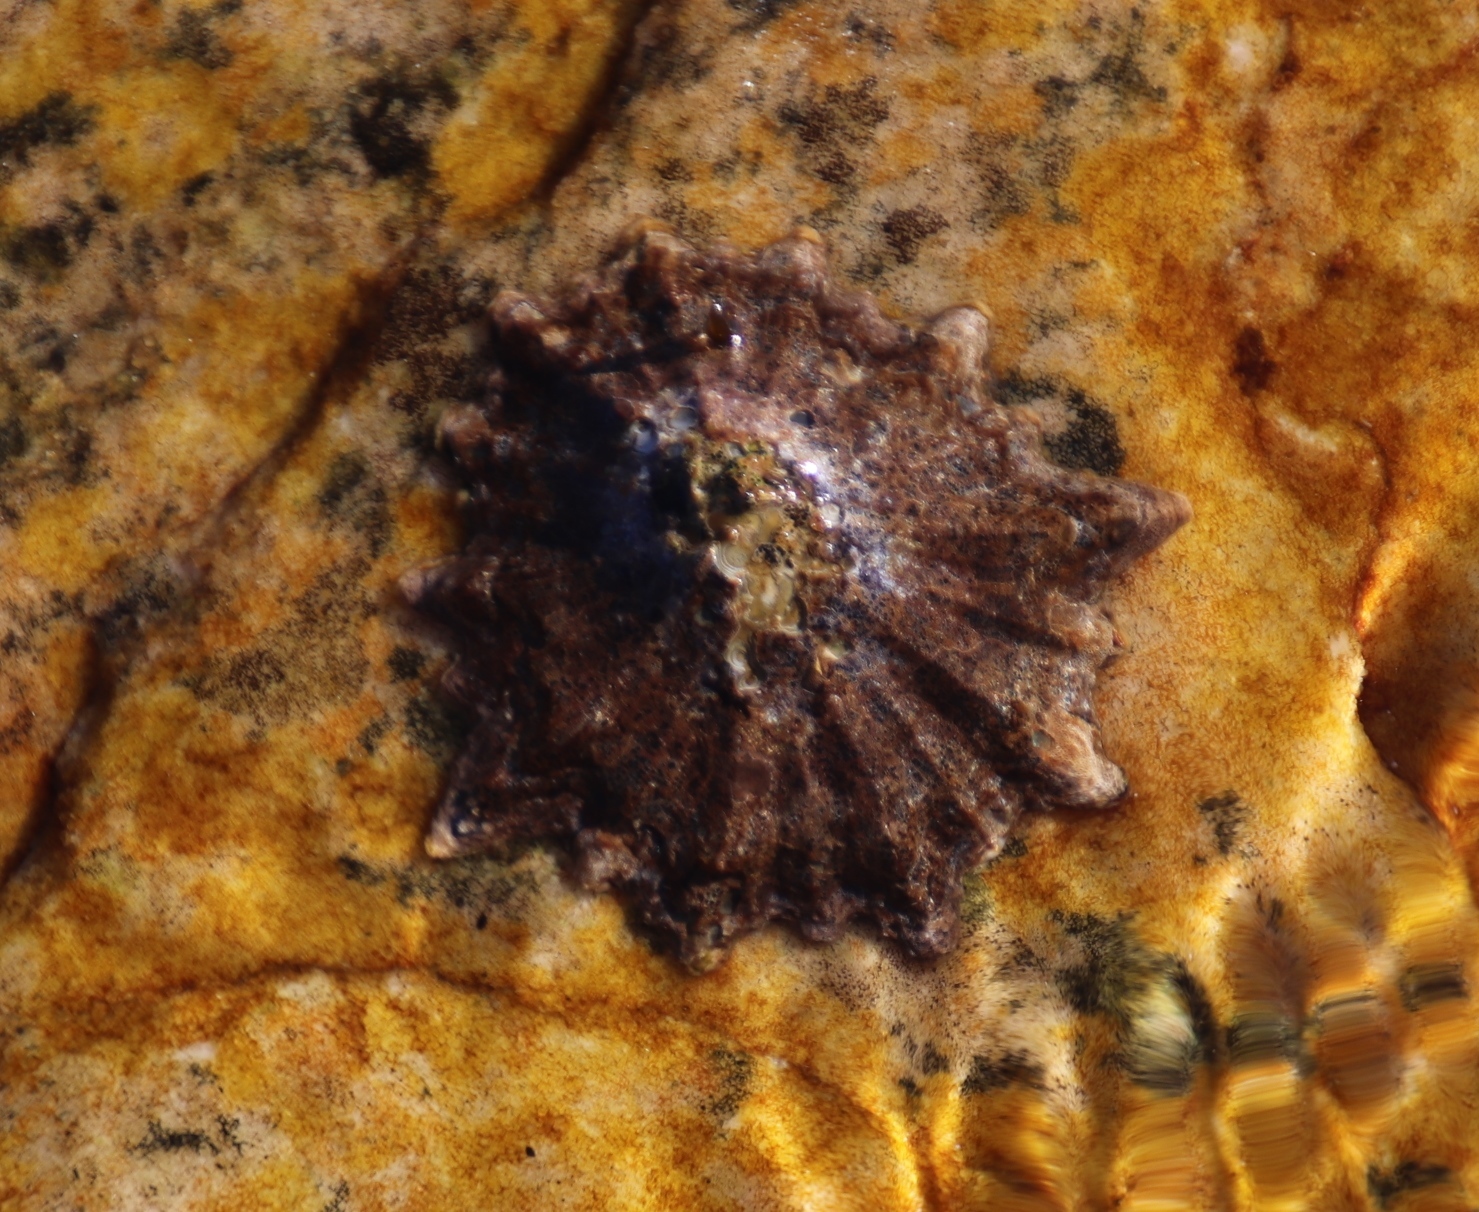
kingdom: Animalia
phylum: Mollusca
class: Gastropoda
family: Patellidae
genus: Cymbula
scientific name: Cymbula oculus
